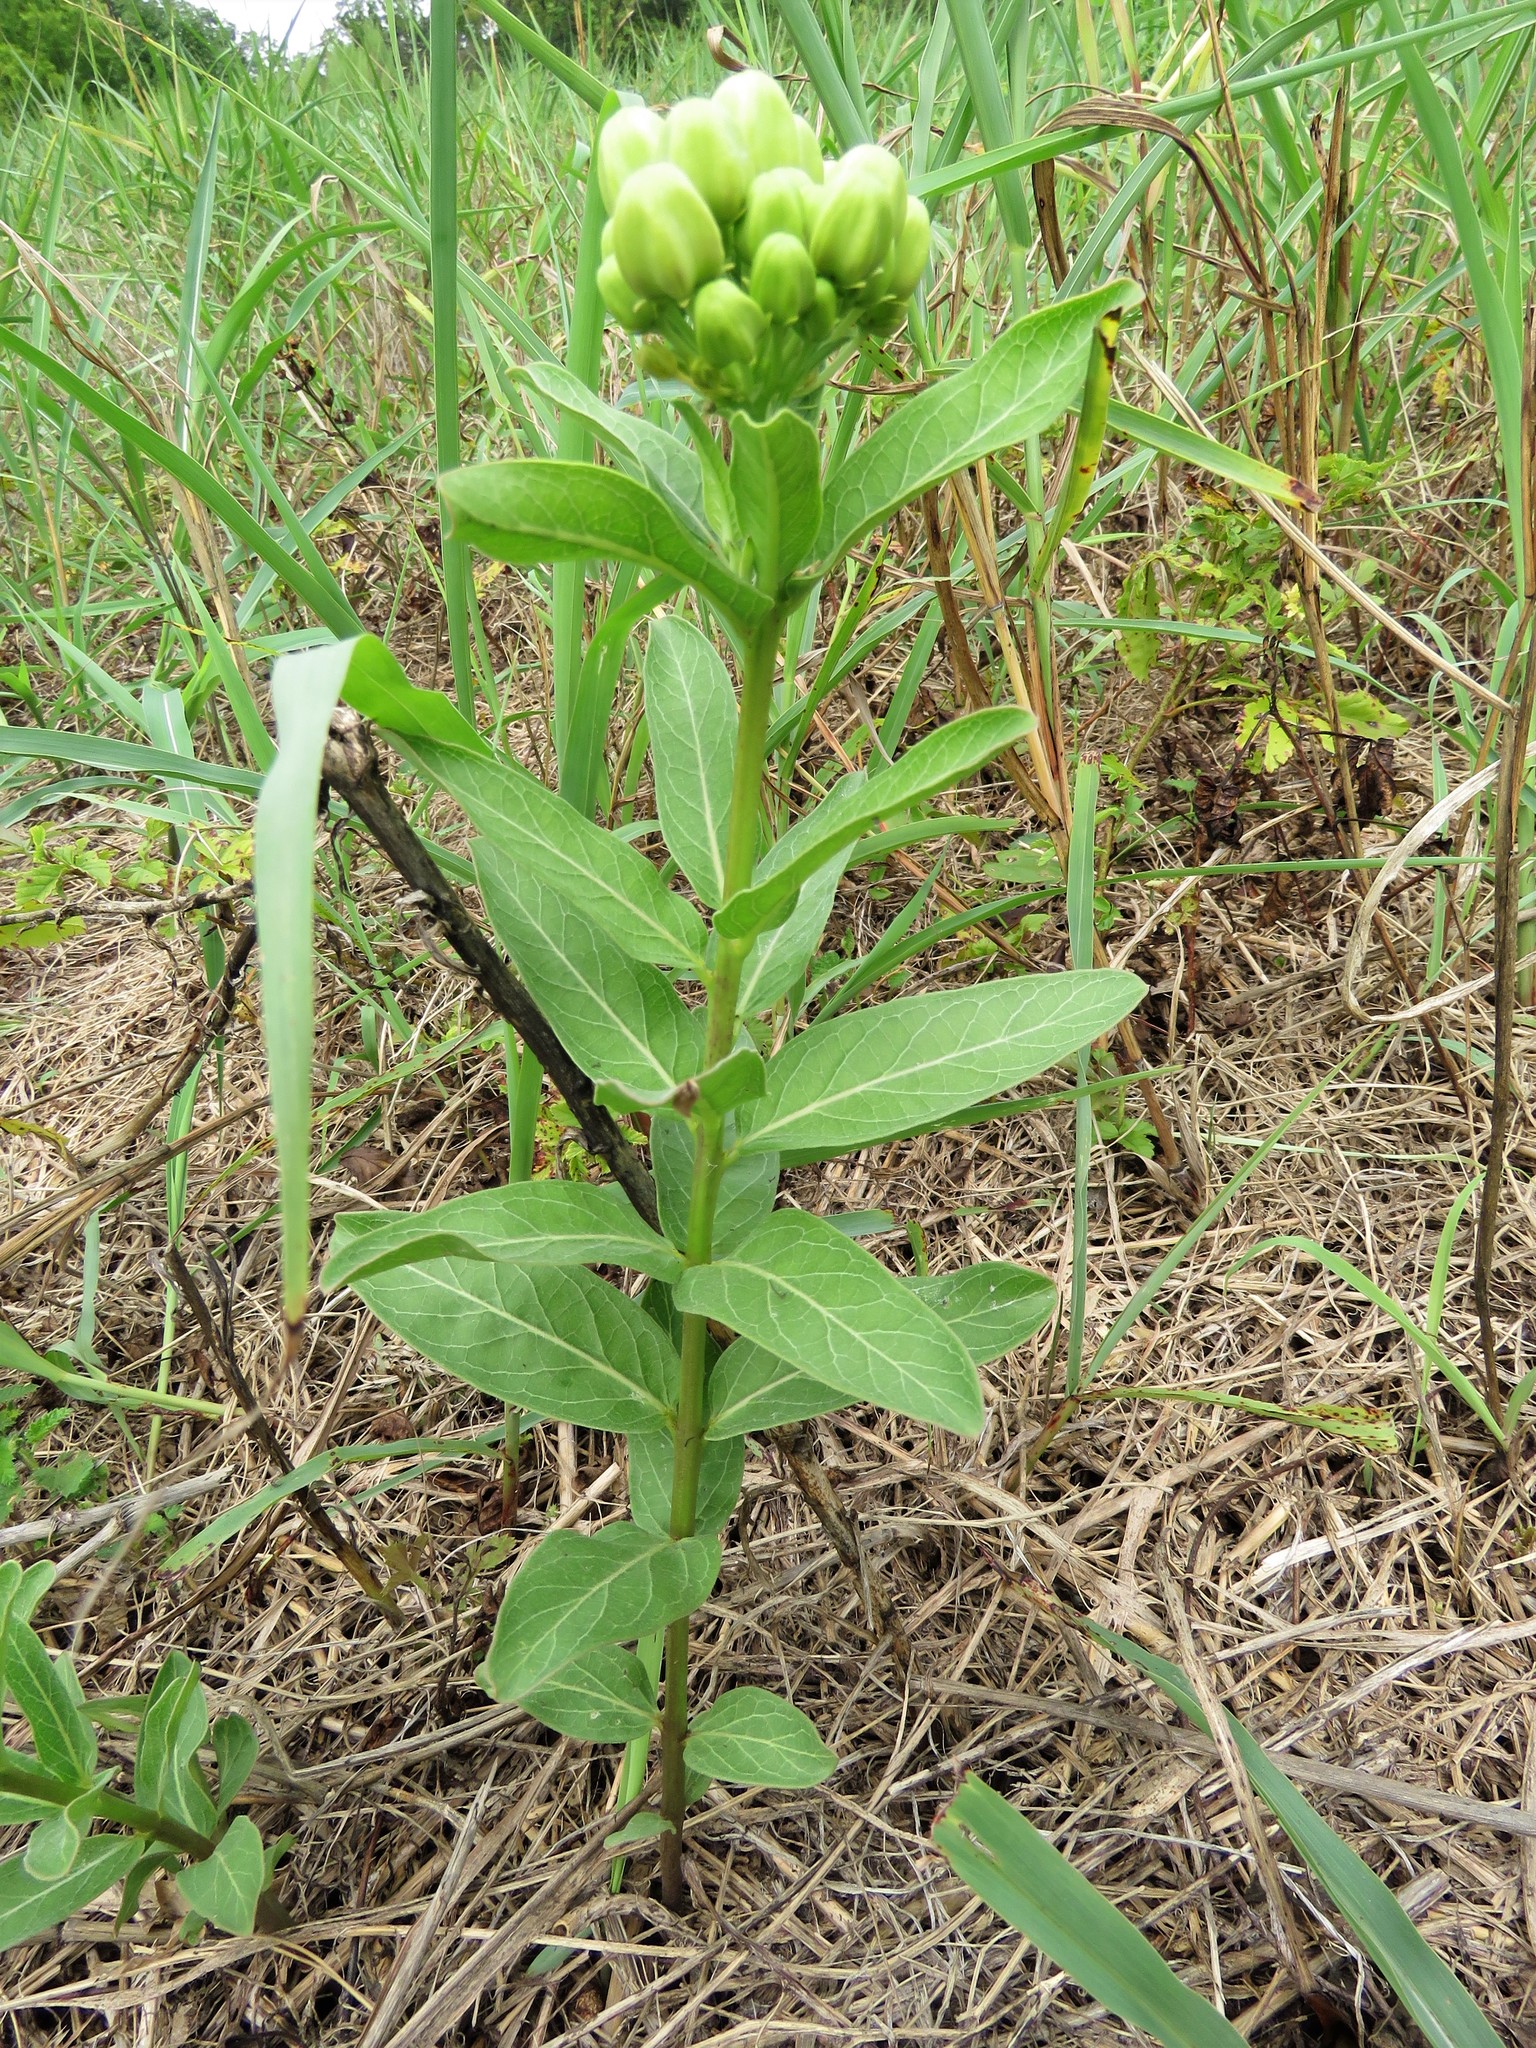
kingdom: Plantae
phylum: Tracheophyta
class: Magnoliopsida
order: Gentianales
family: Apocynaceae
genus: Asclepias
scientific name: Asclepias viridis
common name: Antelope-horns
